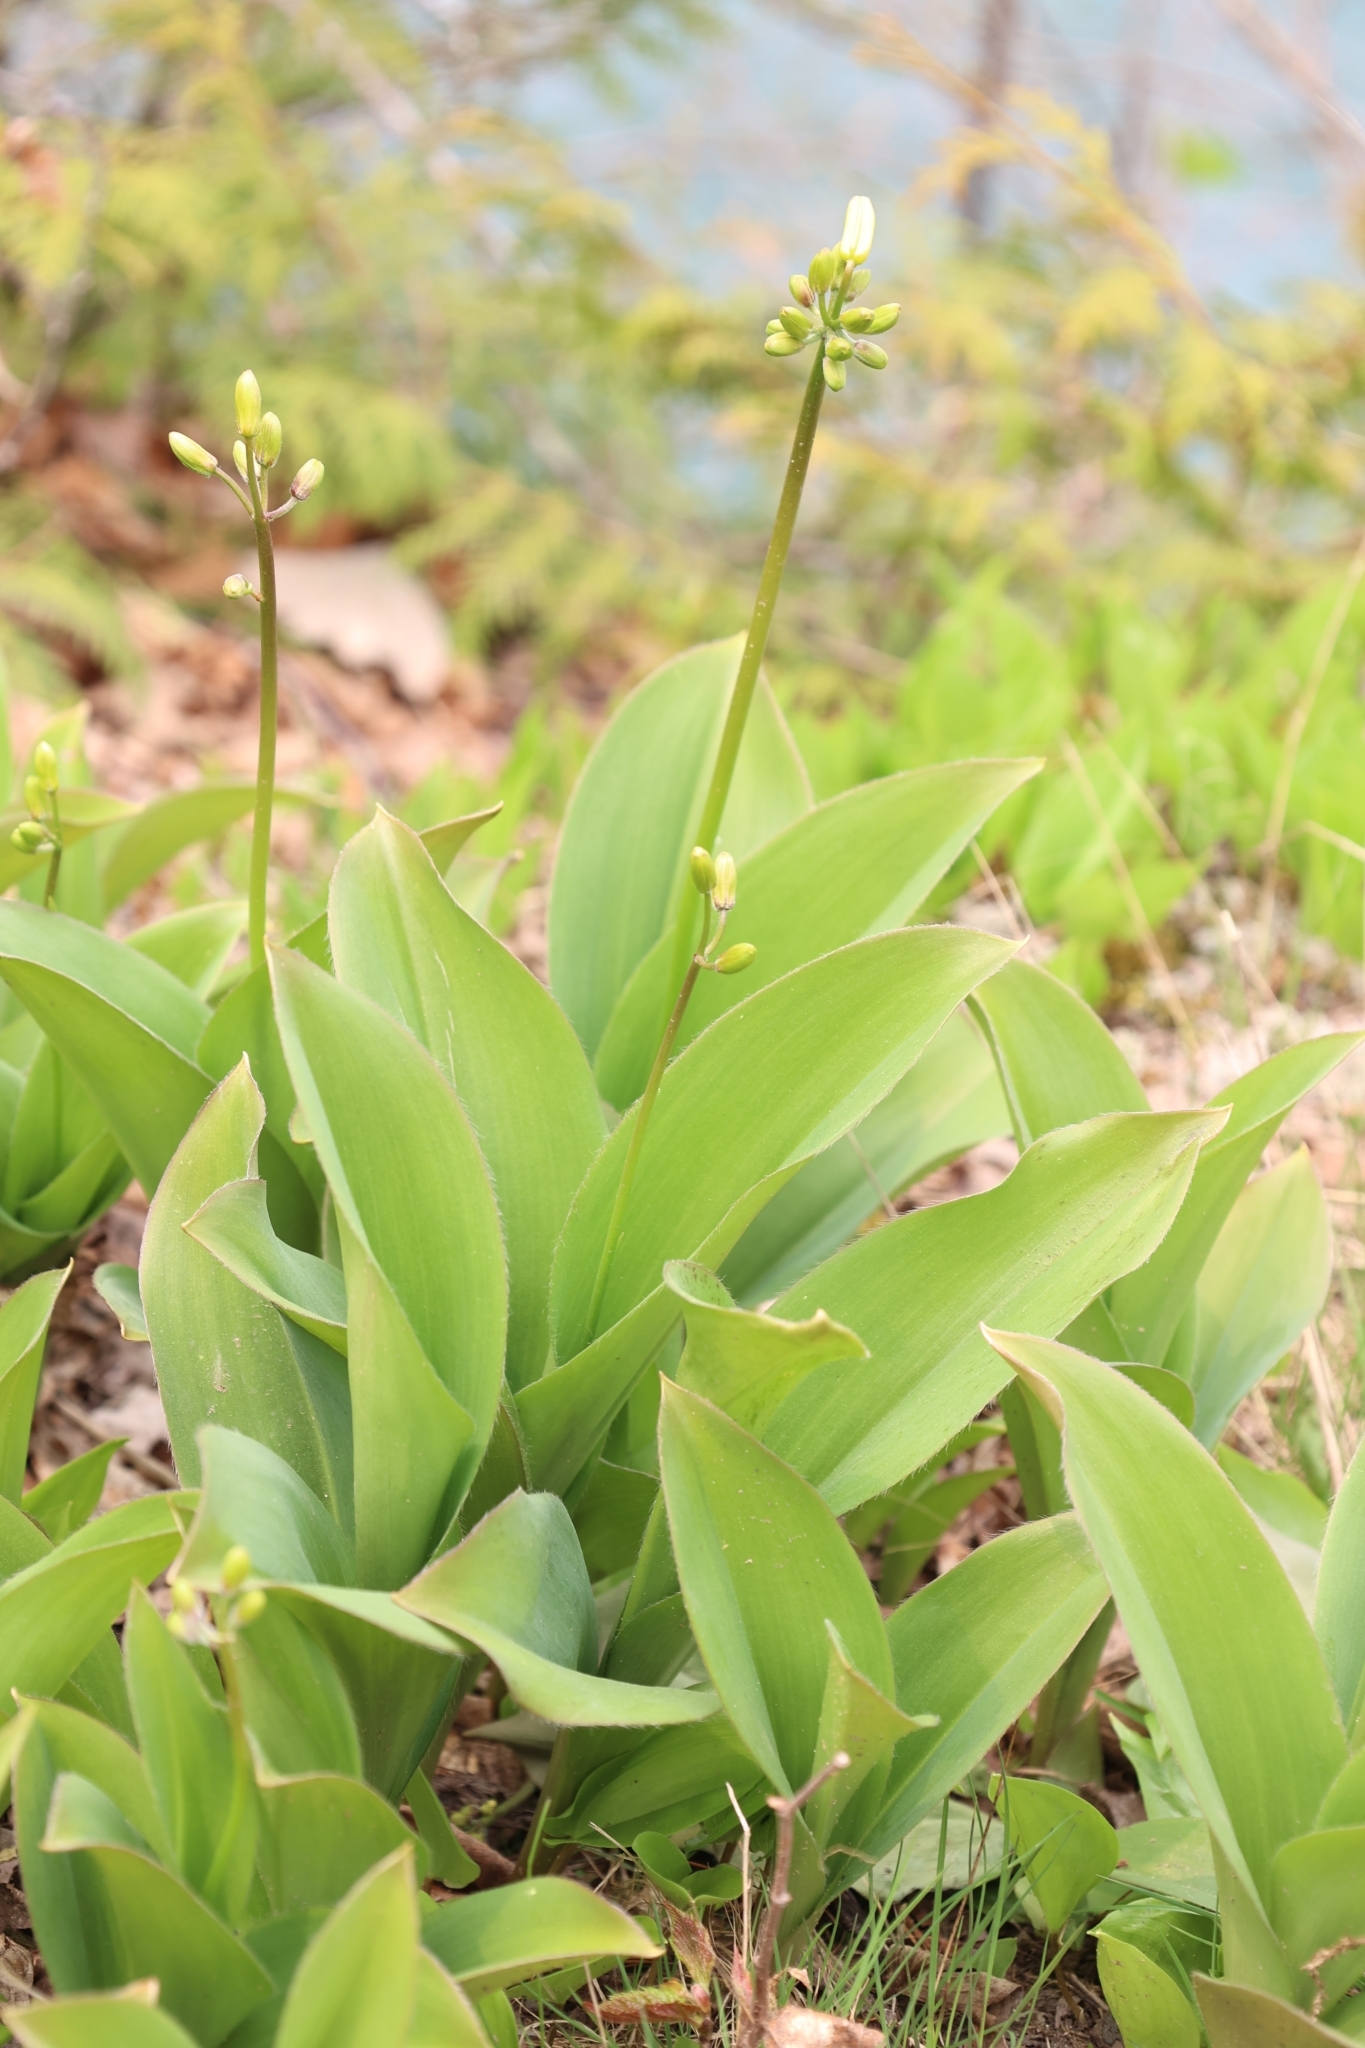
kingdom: Plantae
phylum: Tracheophyta
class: Liliopsida
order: Liliales
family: Liliaceae
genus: Clintonia
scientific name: Clintonia borealis
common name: Yellow clintonia
